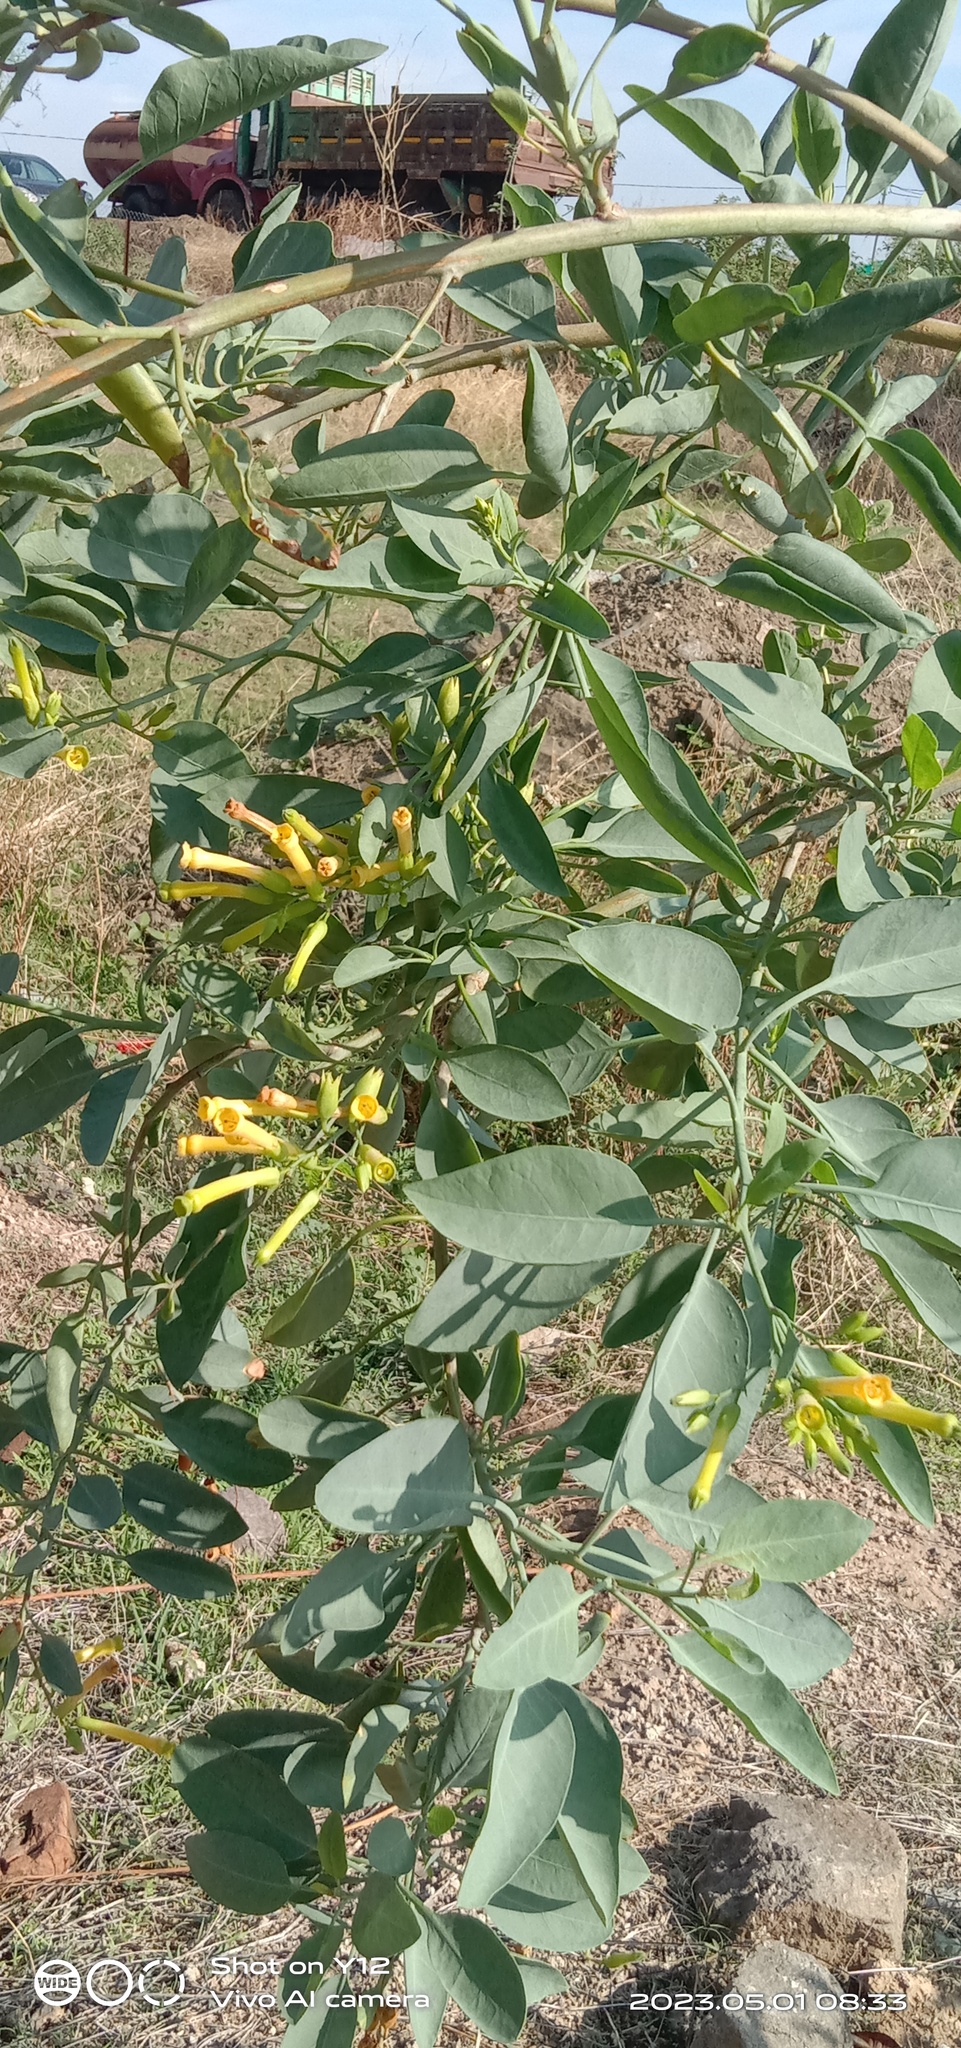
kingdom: Plantae
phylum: Tracheophyta
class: Magnoliopsida
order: Solanales
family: Solanaceae
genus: Nicotiana
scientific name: Nicotiana glauca
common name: Tree tobacco
